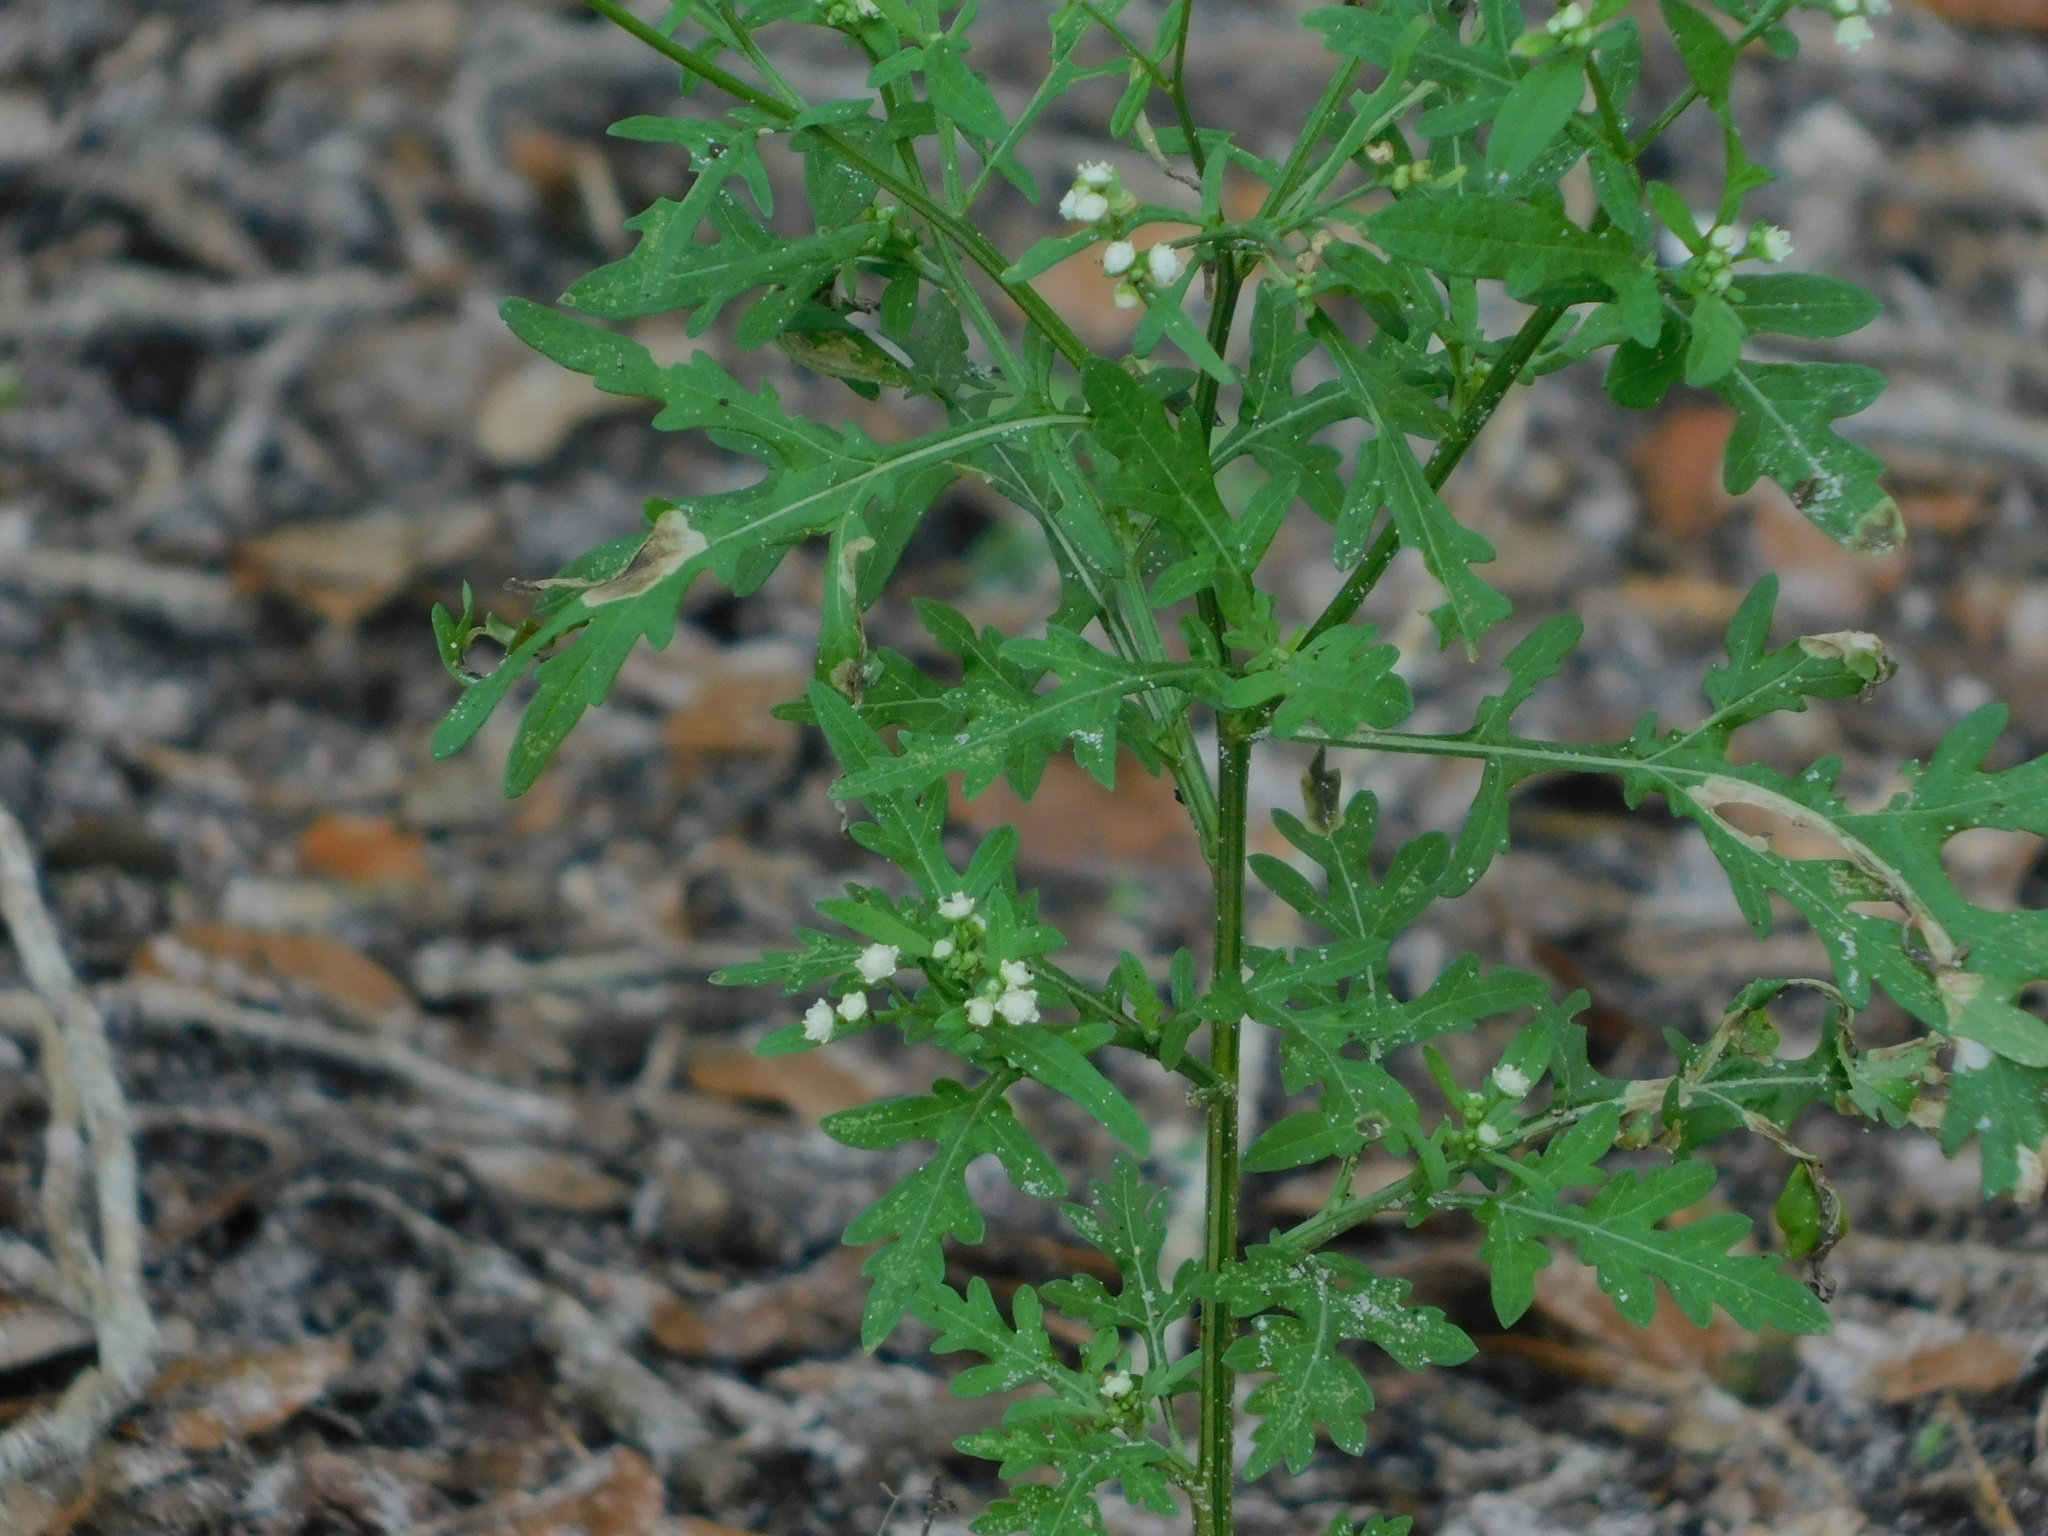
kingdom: Plantae
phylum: Tracheophyta
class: Magnoliopsida
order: Asterales
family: Asteraceae
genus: Parthenium
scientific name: Parthenium hysterophorus
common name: Santa maria feverfew
